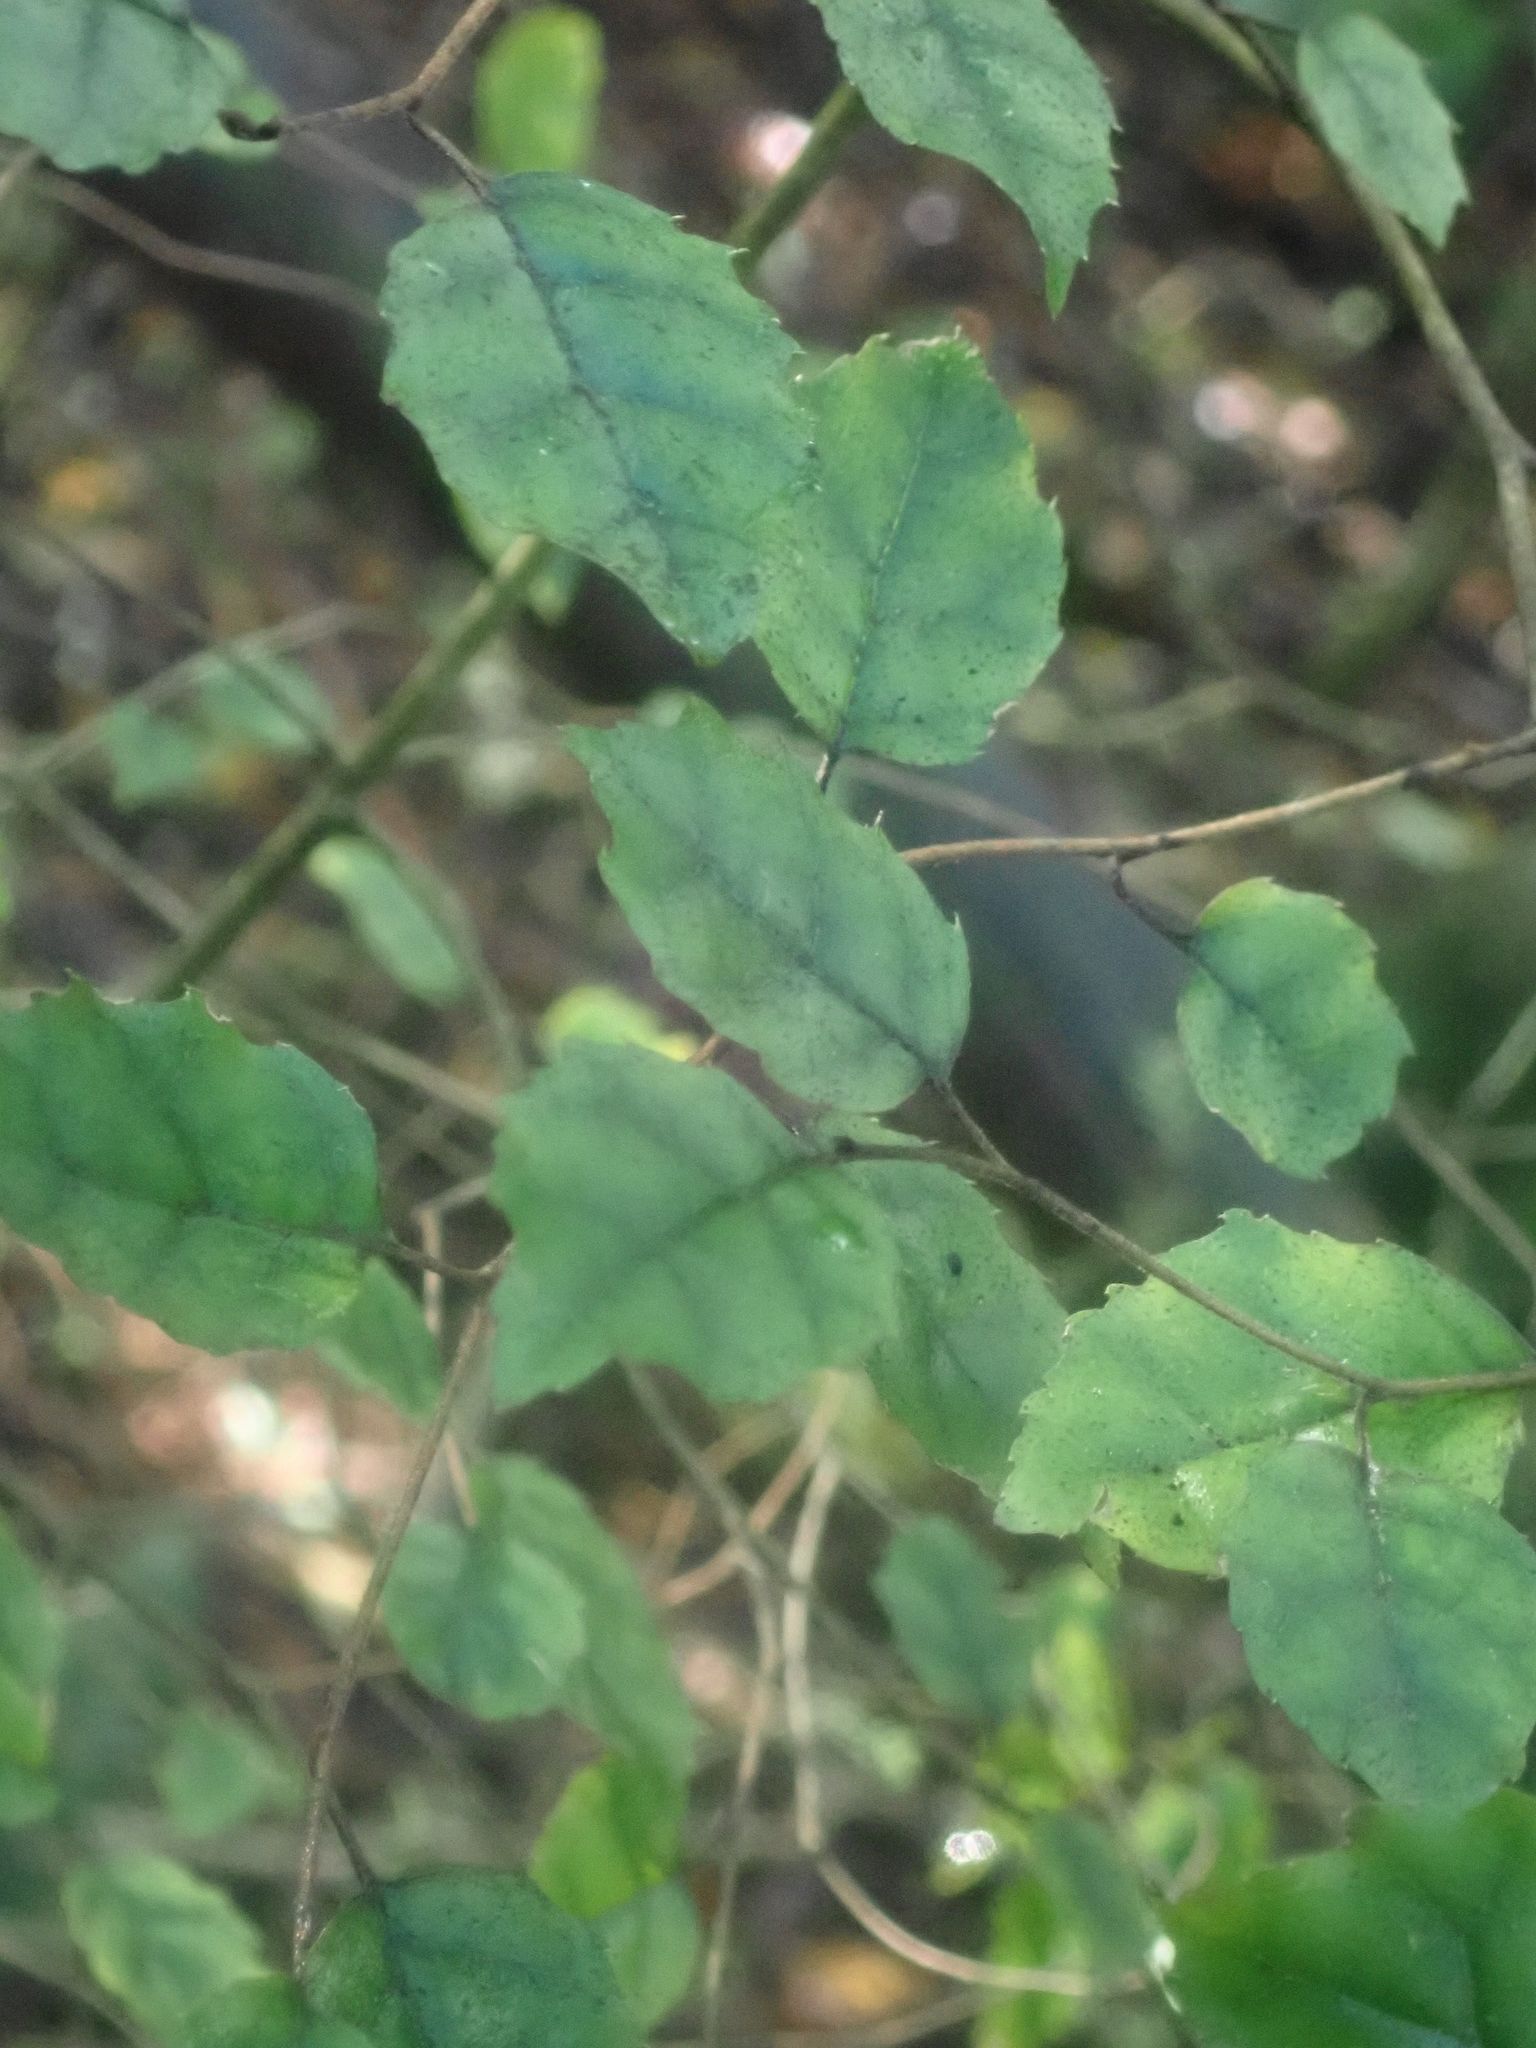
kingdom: Plantae
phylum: Tracheophyta
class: Magnoliopsida
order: Asterales
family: Rousseaceae
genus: Carpodetus
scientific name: Carpodetus serratus
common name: White mapau
